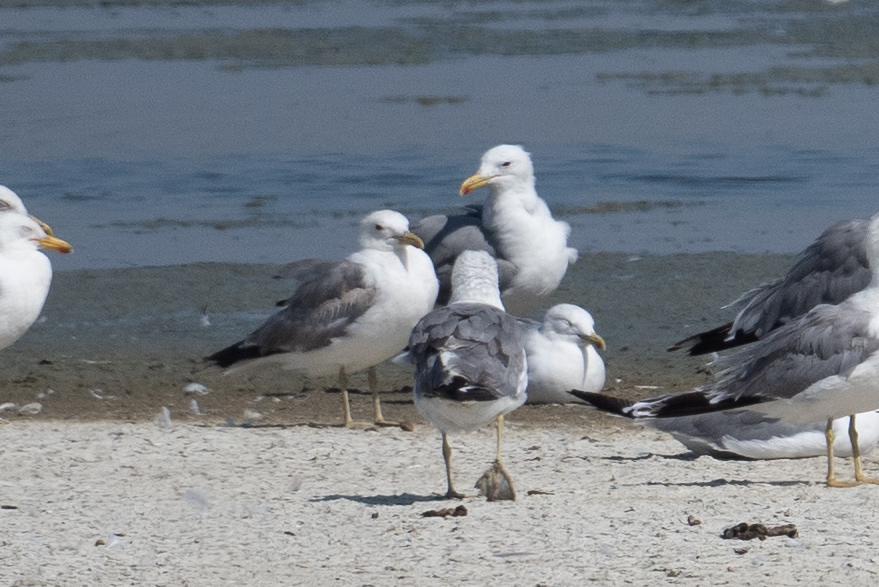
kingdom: Animalia
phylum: Chordata
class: Aves
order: Charadriiformes
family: Laridae
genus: Larus
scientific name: Larus californicus
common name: California gull
